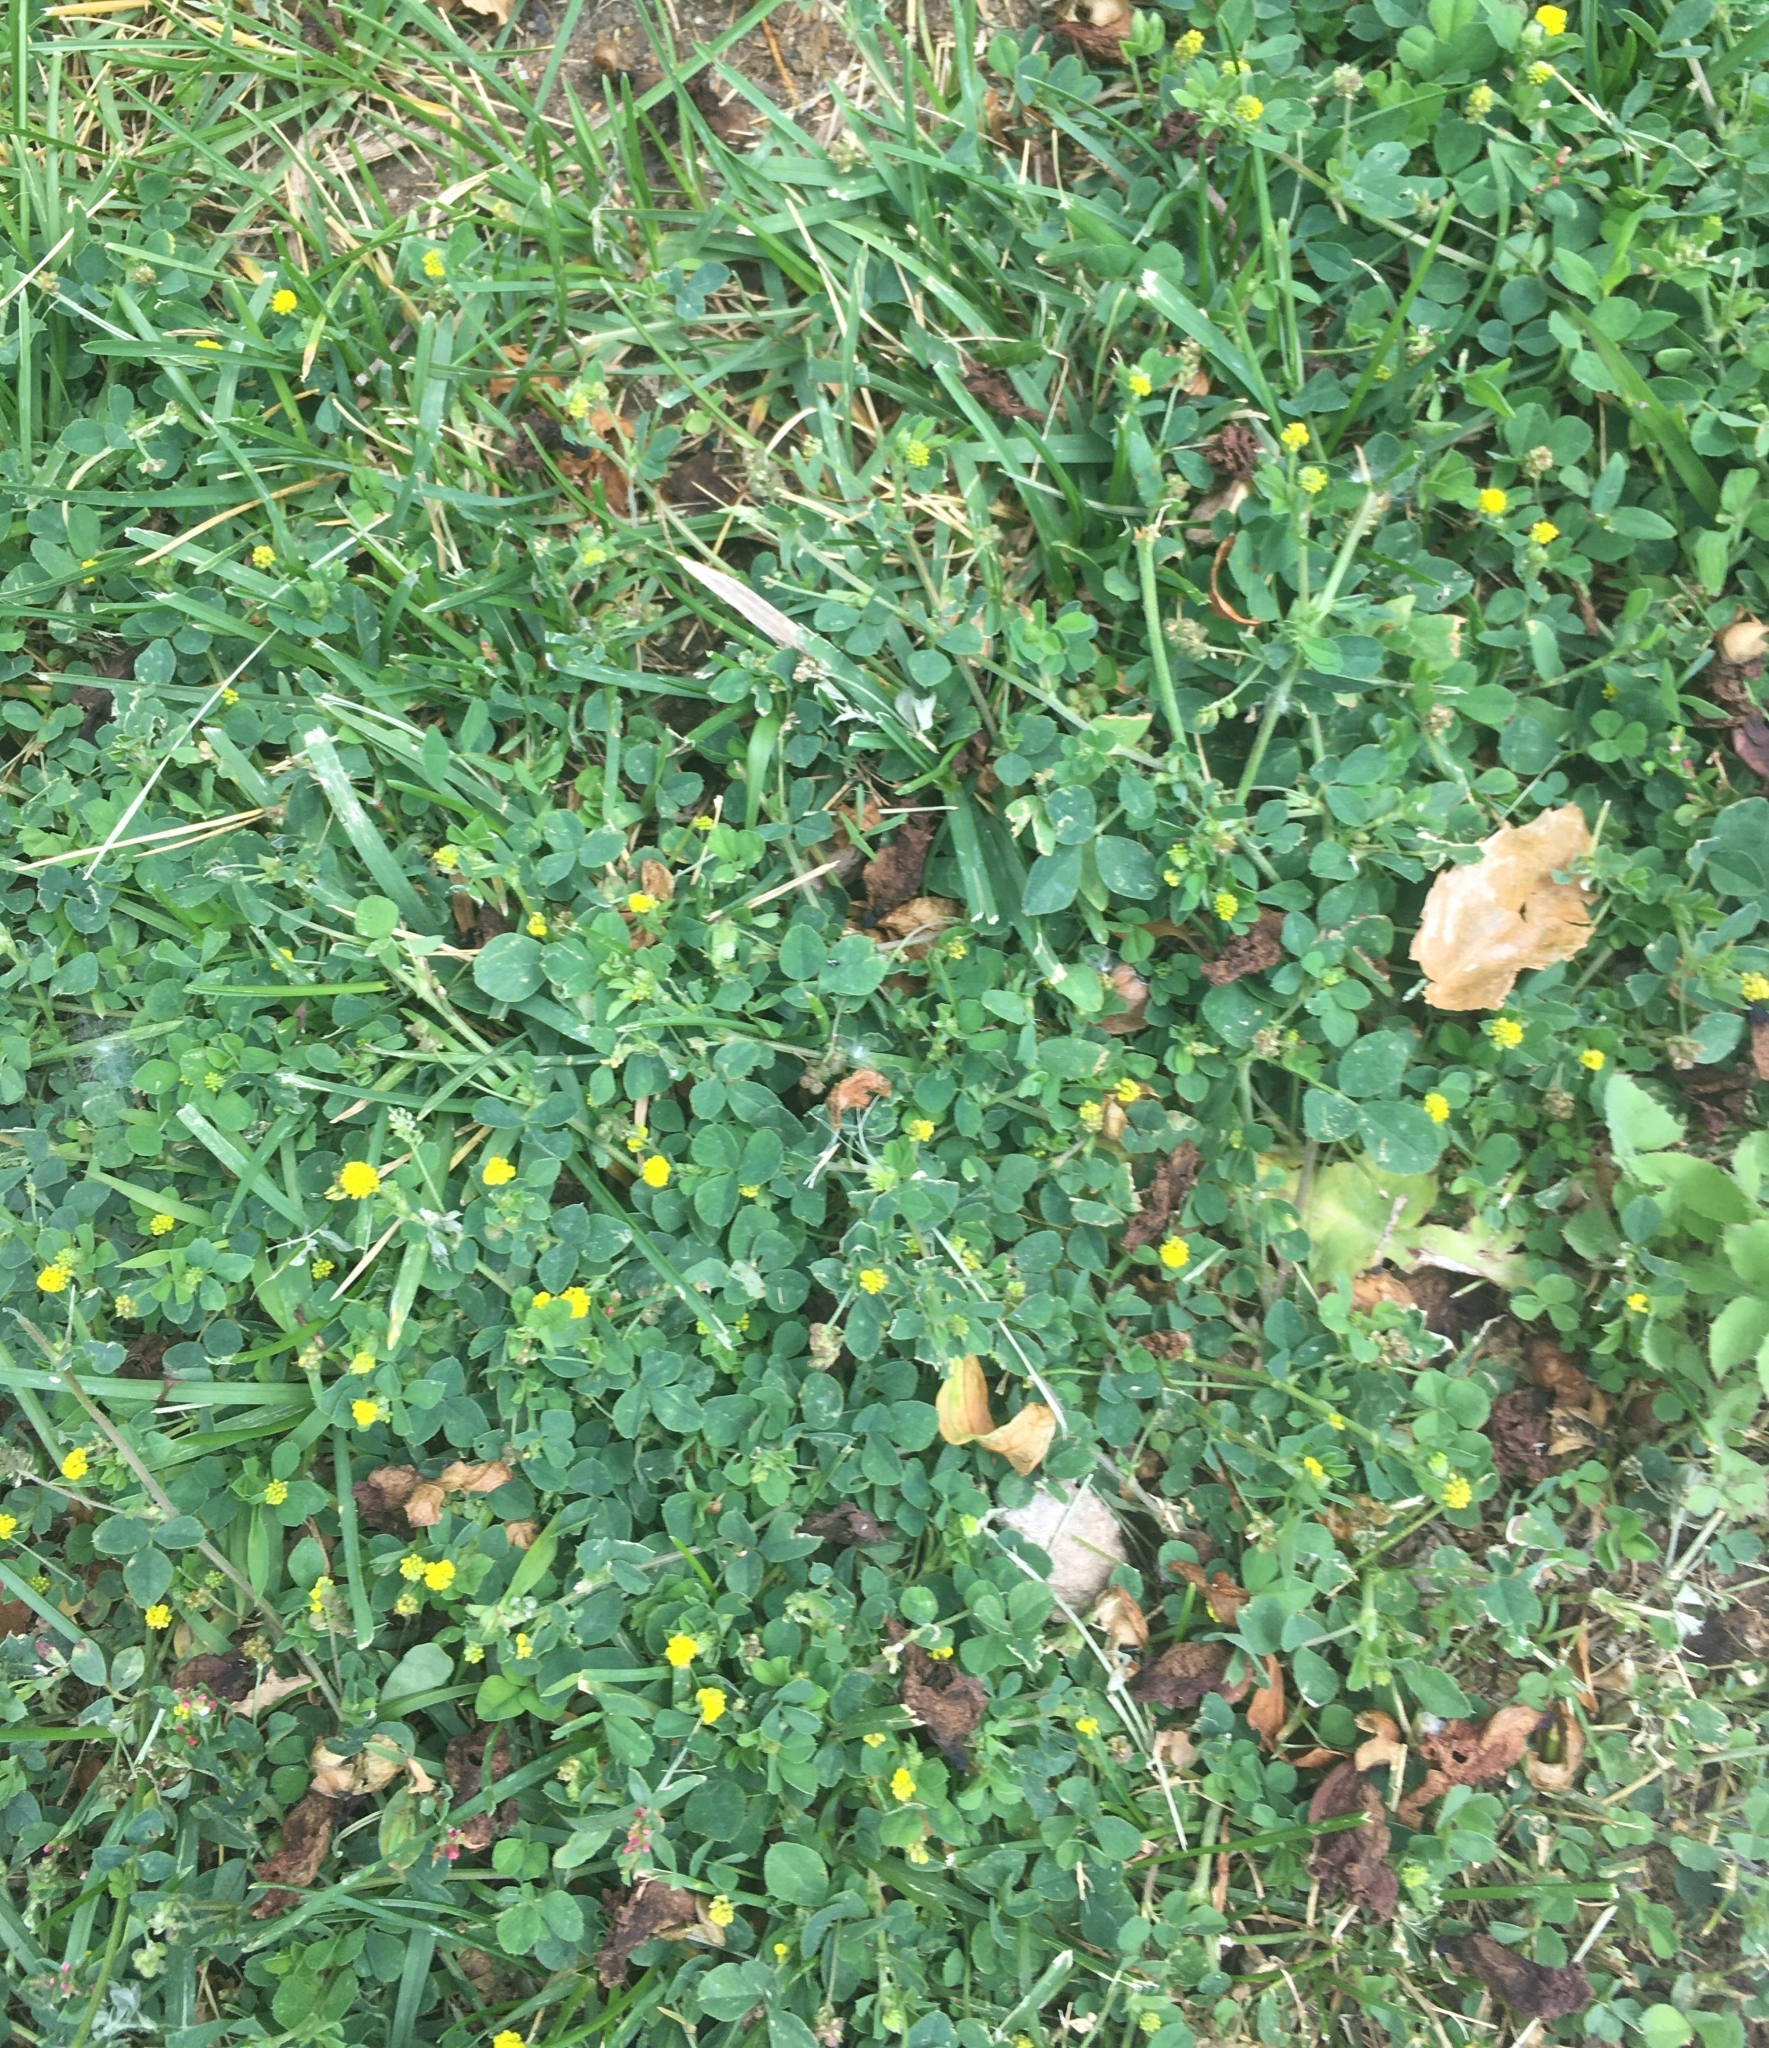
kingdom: Plantae
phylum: Tracheophyta
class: Magnoliopsida
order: Fabales
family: Fabaceae
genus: Medicago
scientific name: Medicago lupulina
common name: Black medick
